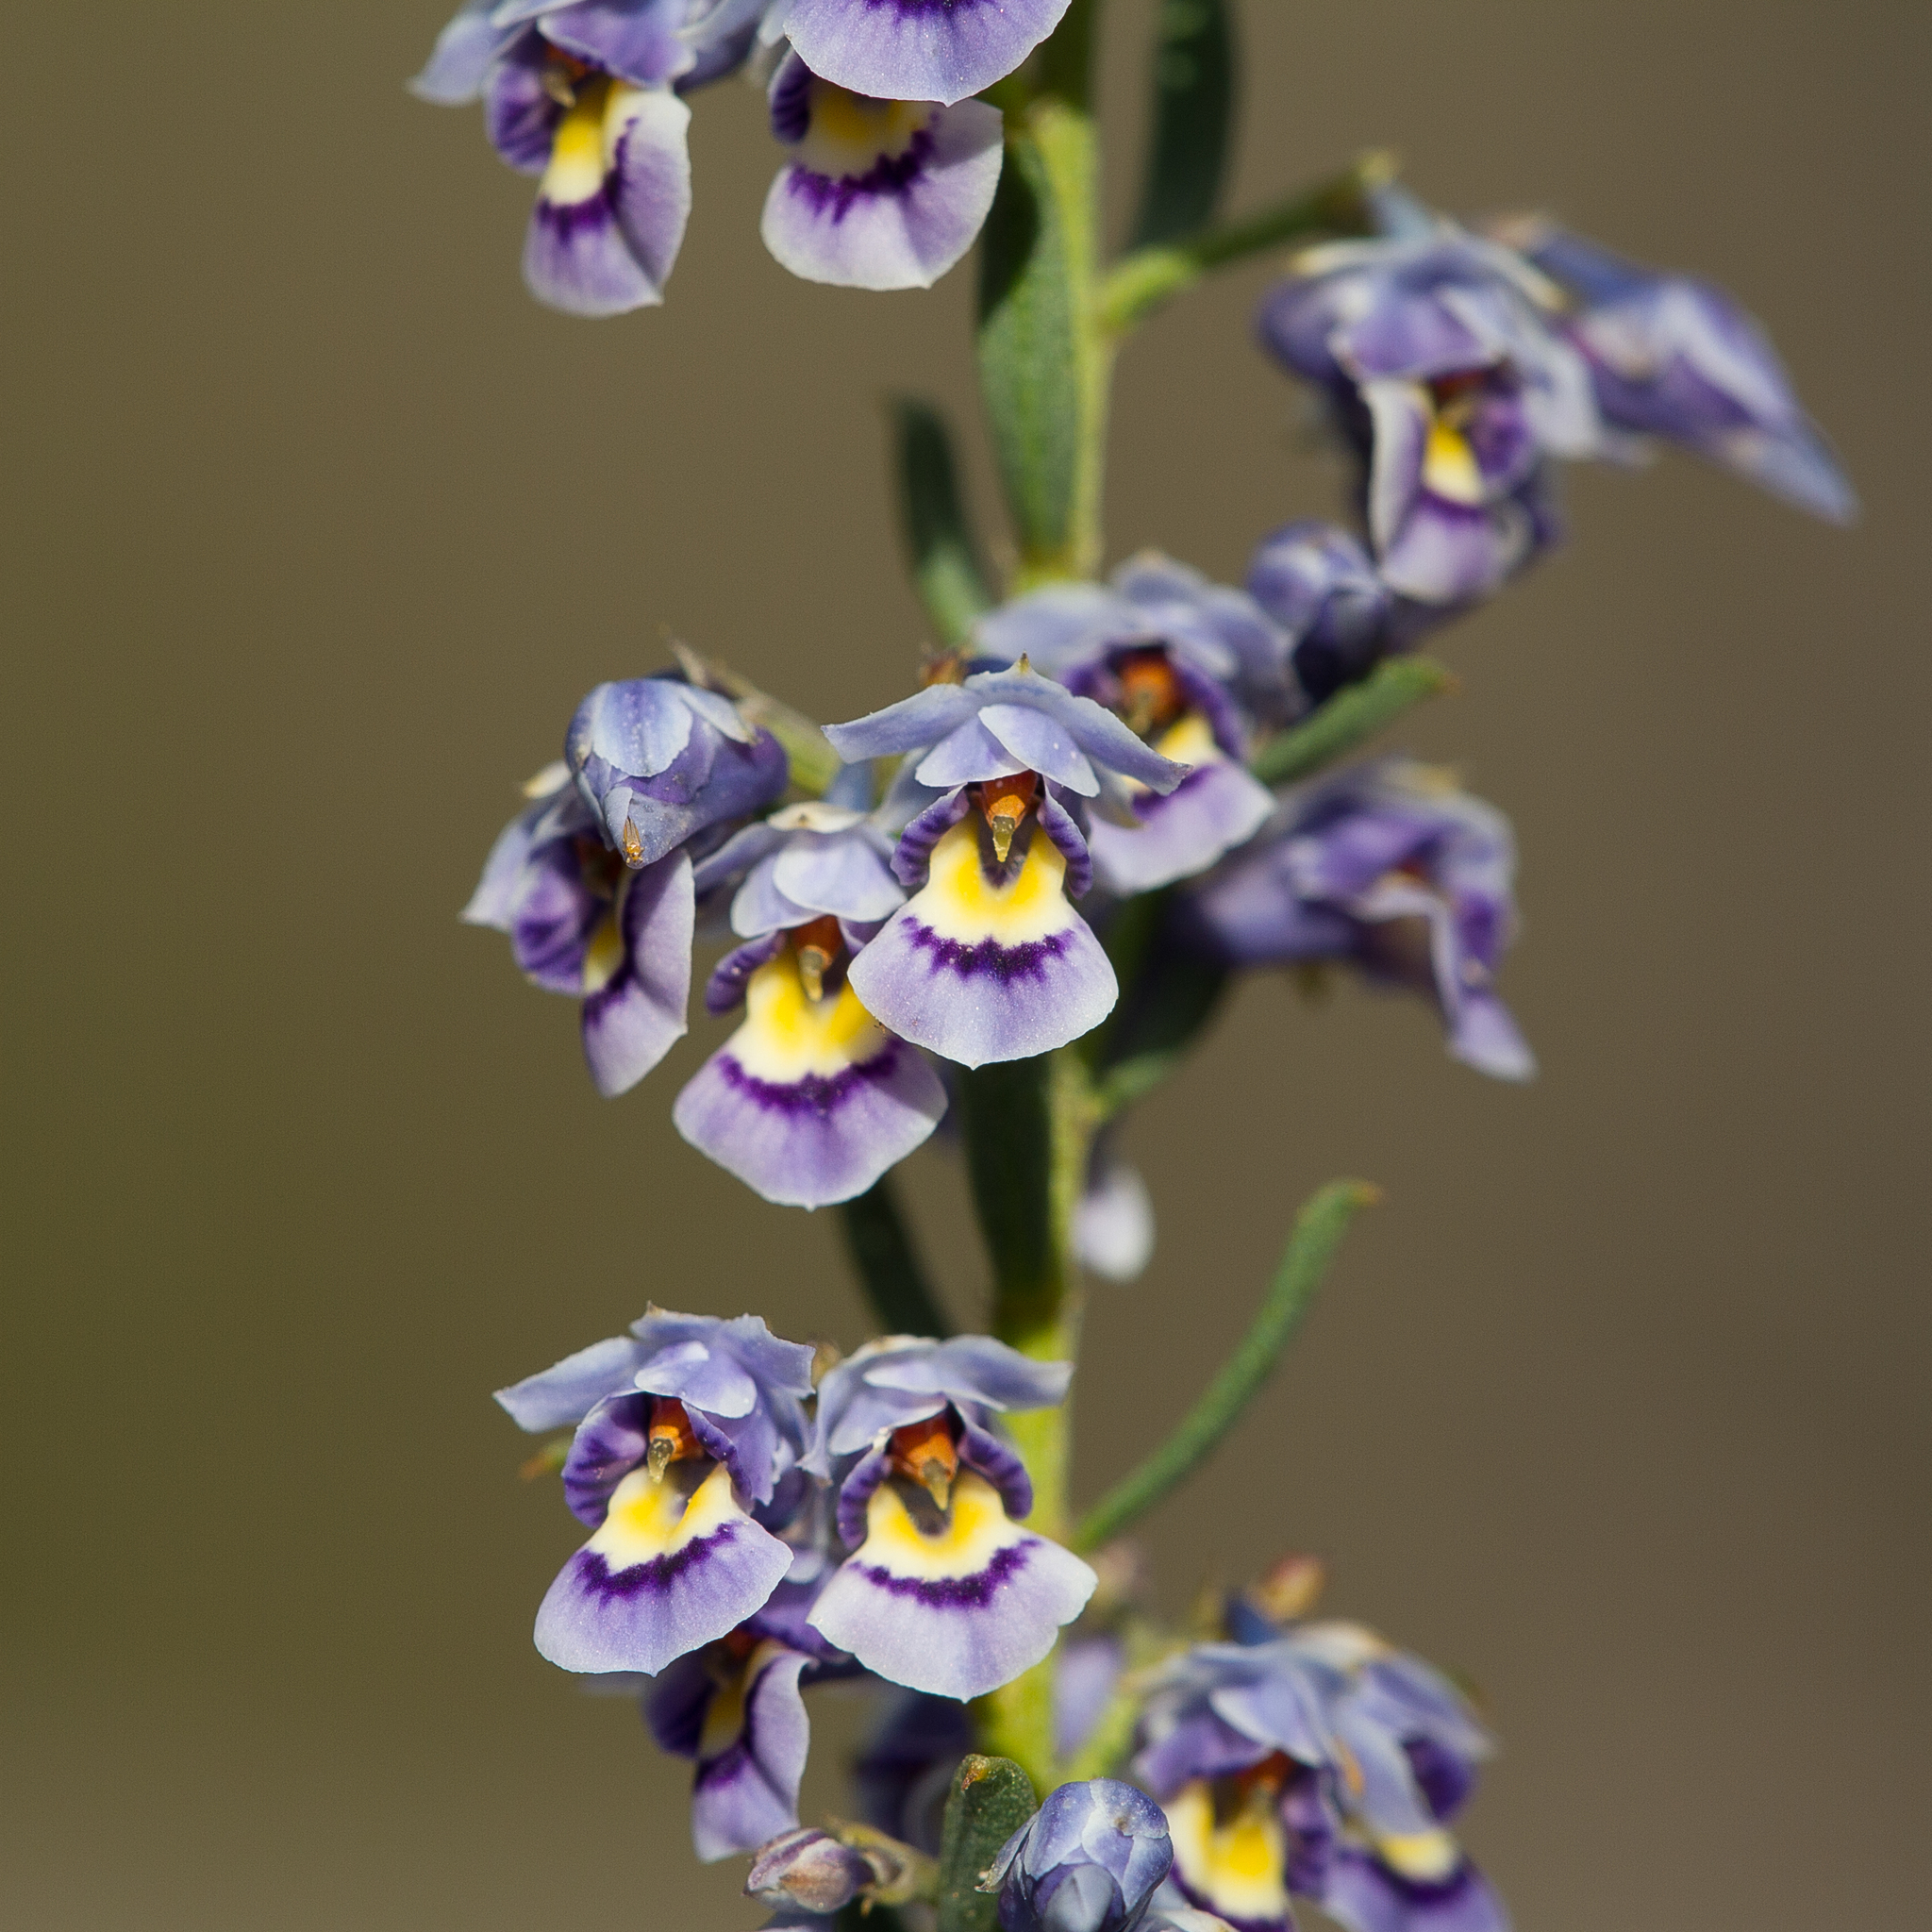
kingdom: Plantae
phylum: Tracheophyta
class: Magnoliopsida
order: Malpighiales
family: Violaceae
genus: Pigea
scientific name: Pigea floribunda
